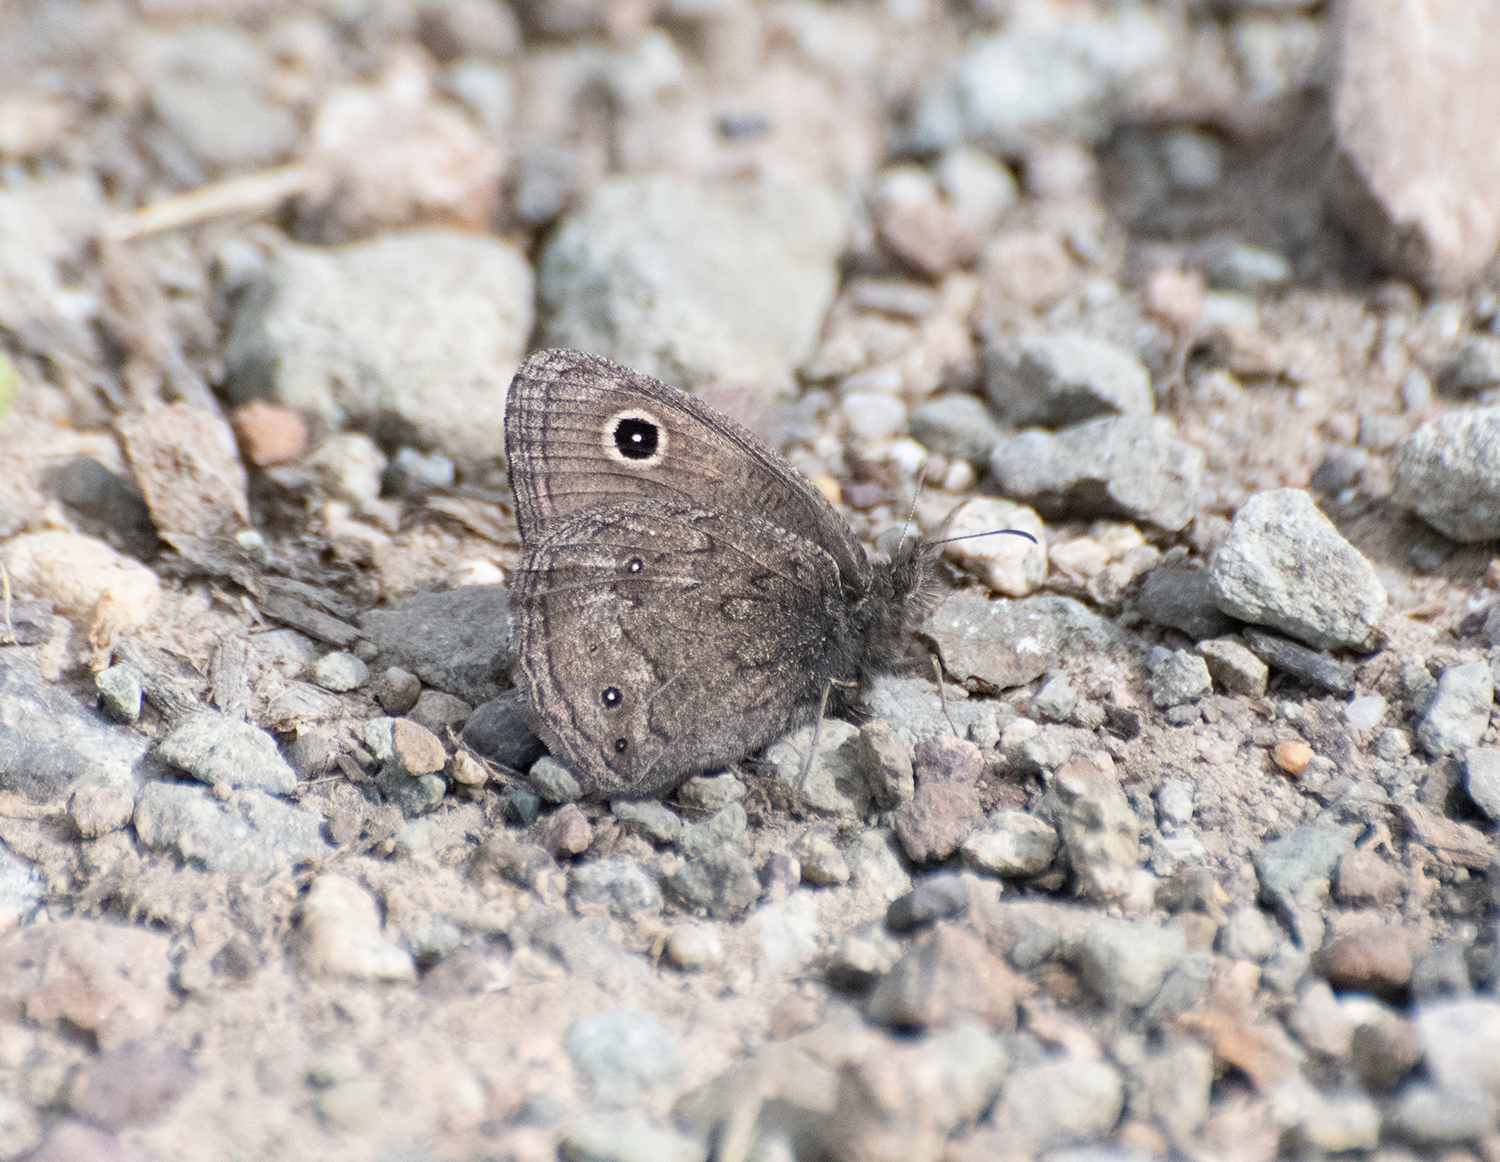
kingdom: Animalia
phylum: Arthropoda
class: Insecta
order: Lepidoptera
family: Nymphalidae
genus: Cercyonis
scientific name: Cercyonis oetus
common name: Small wood-nymph
